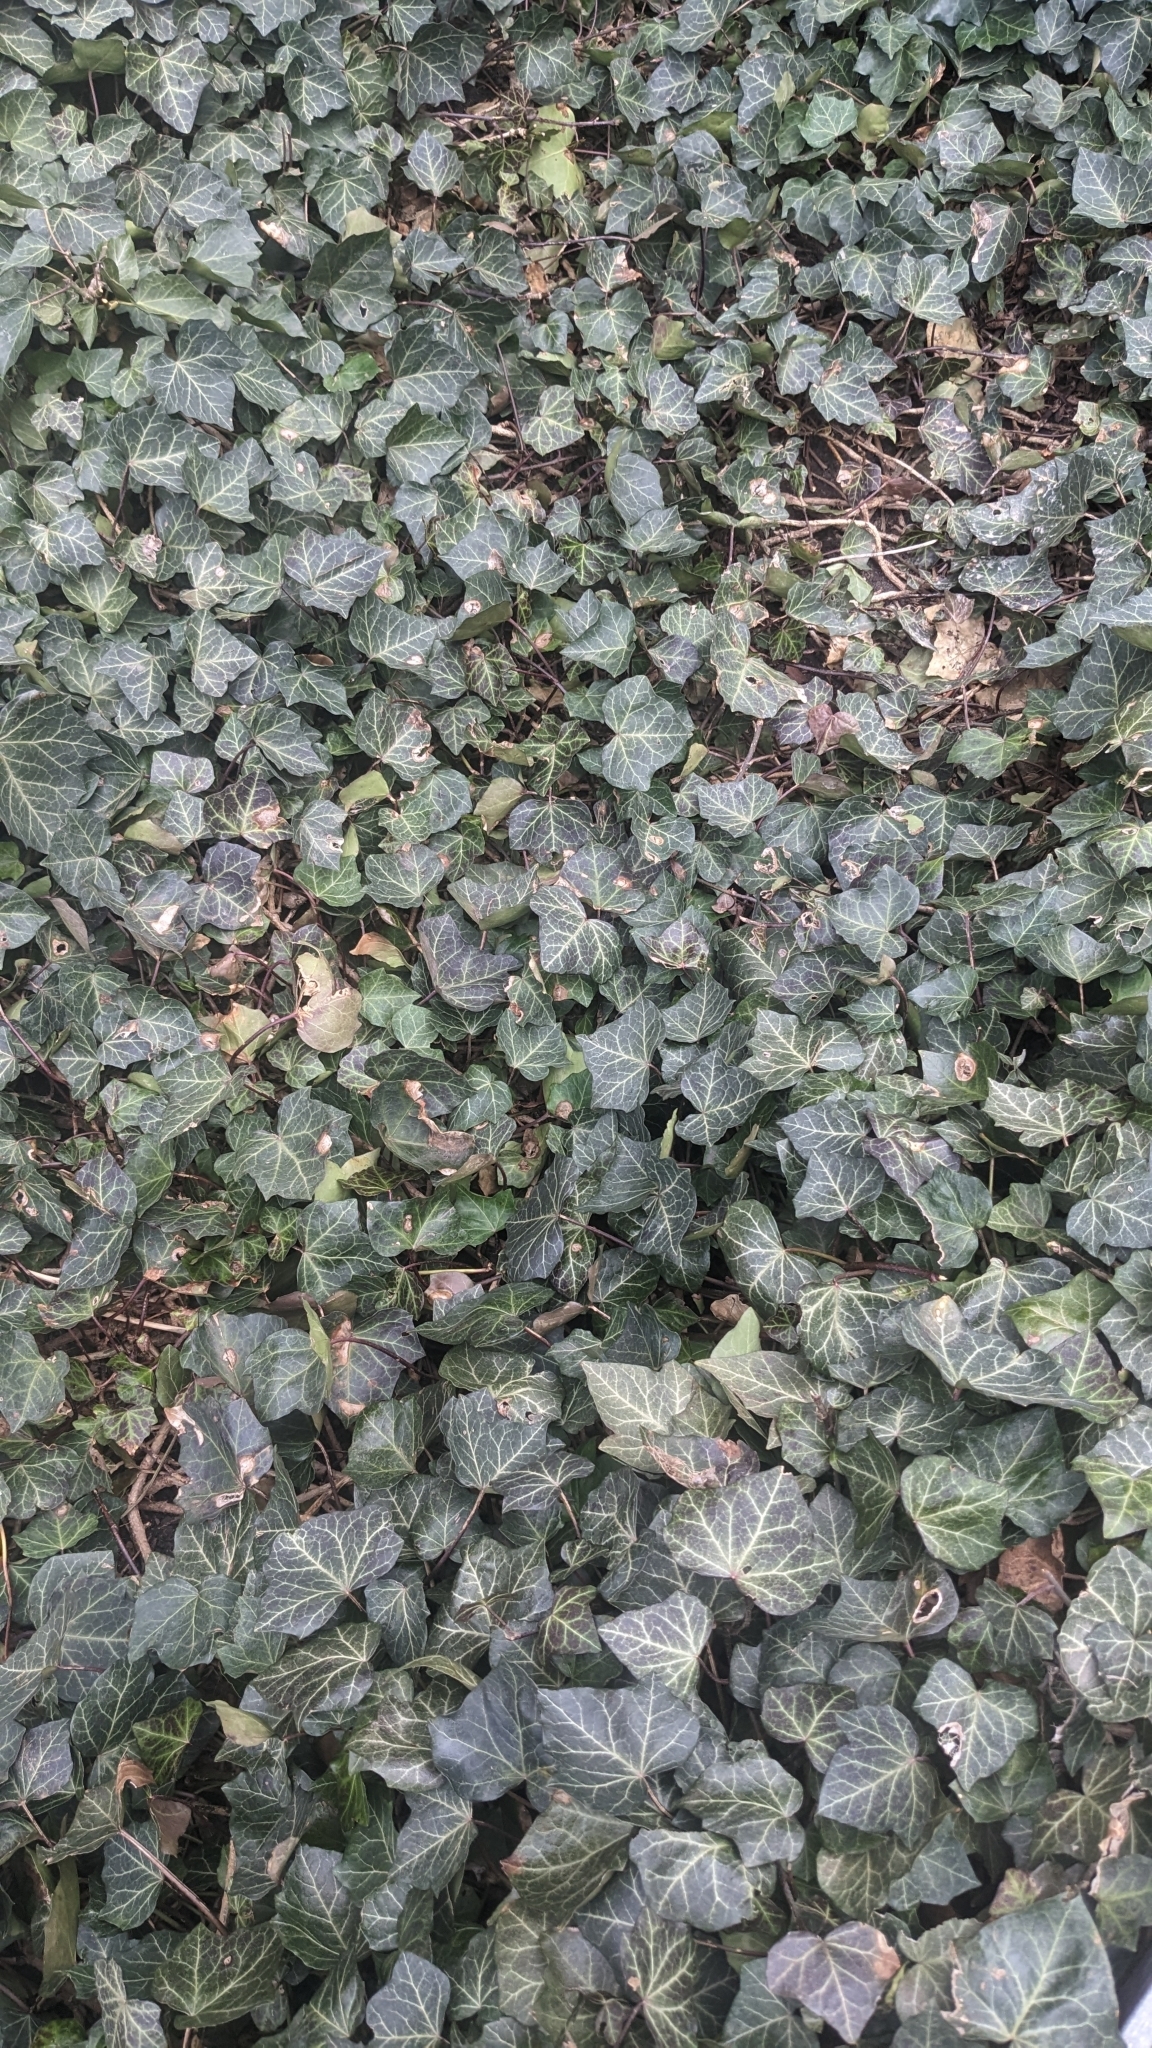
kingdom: Plantae
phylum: Tracheophyta
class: Magnoliopsida
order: Apiales
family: Araliaceae
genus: Hedera
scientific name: Hedera helix
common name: Ivy
